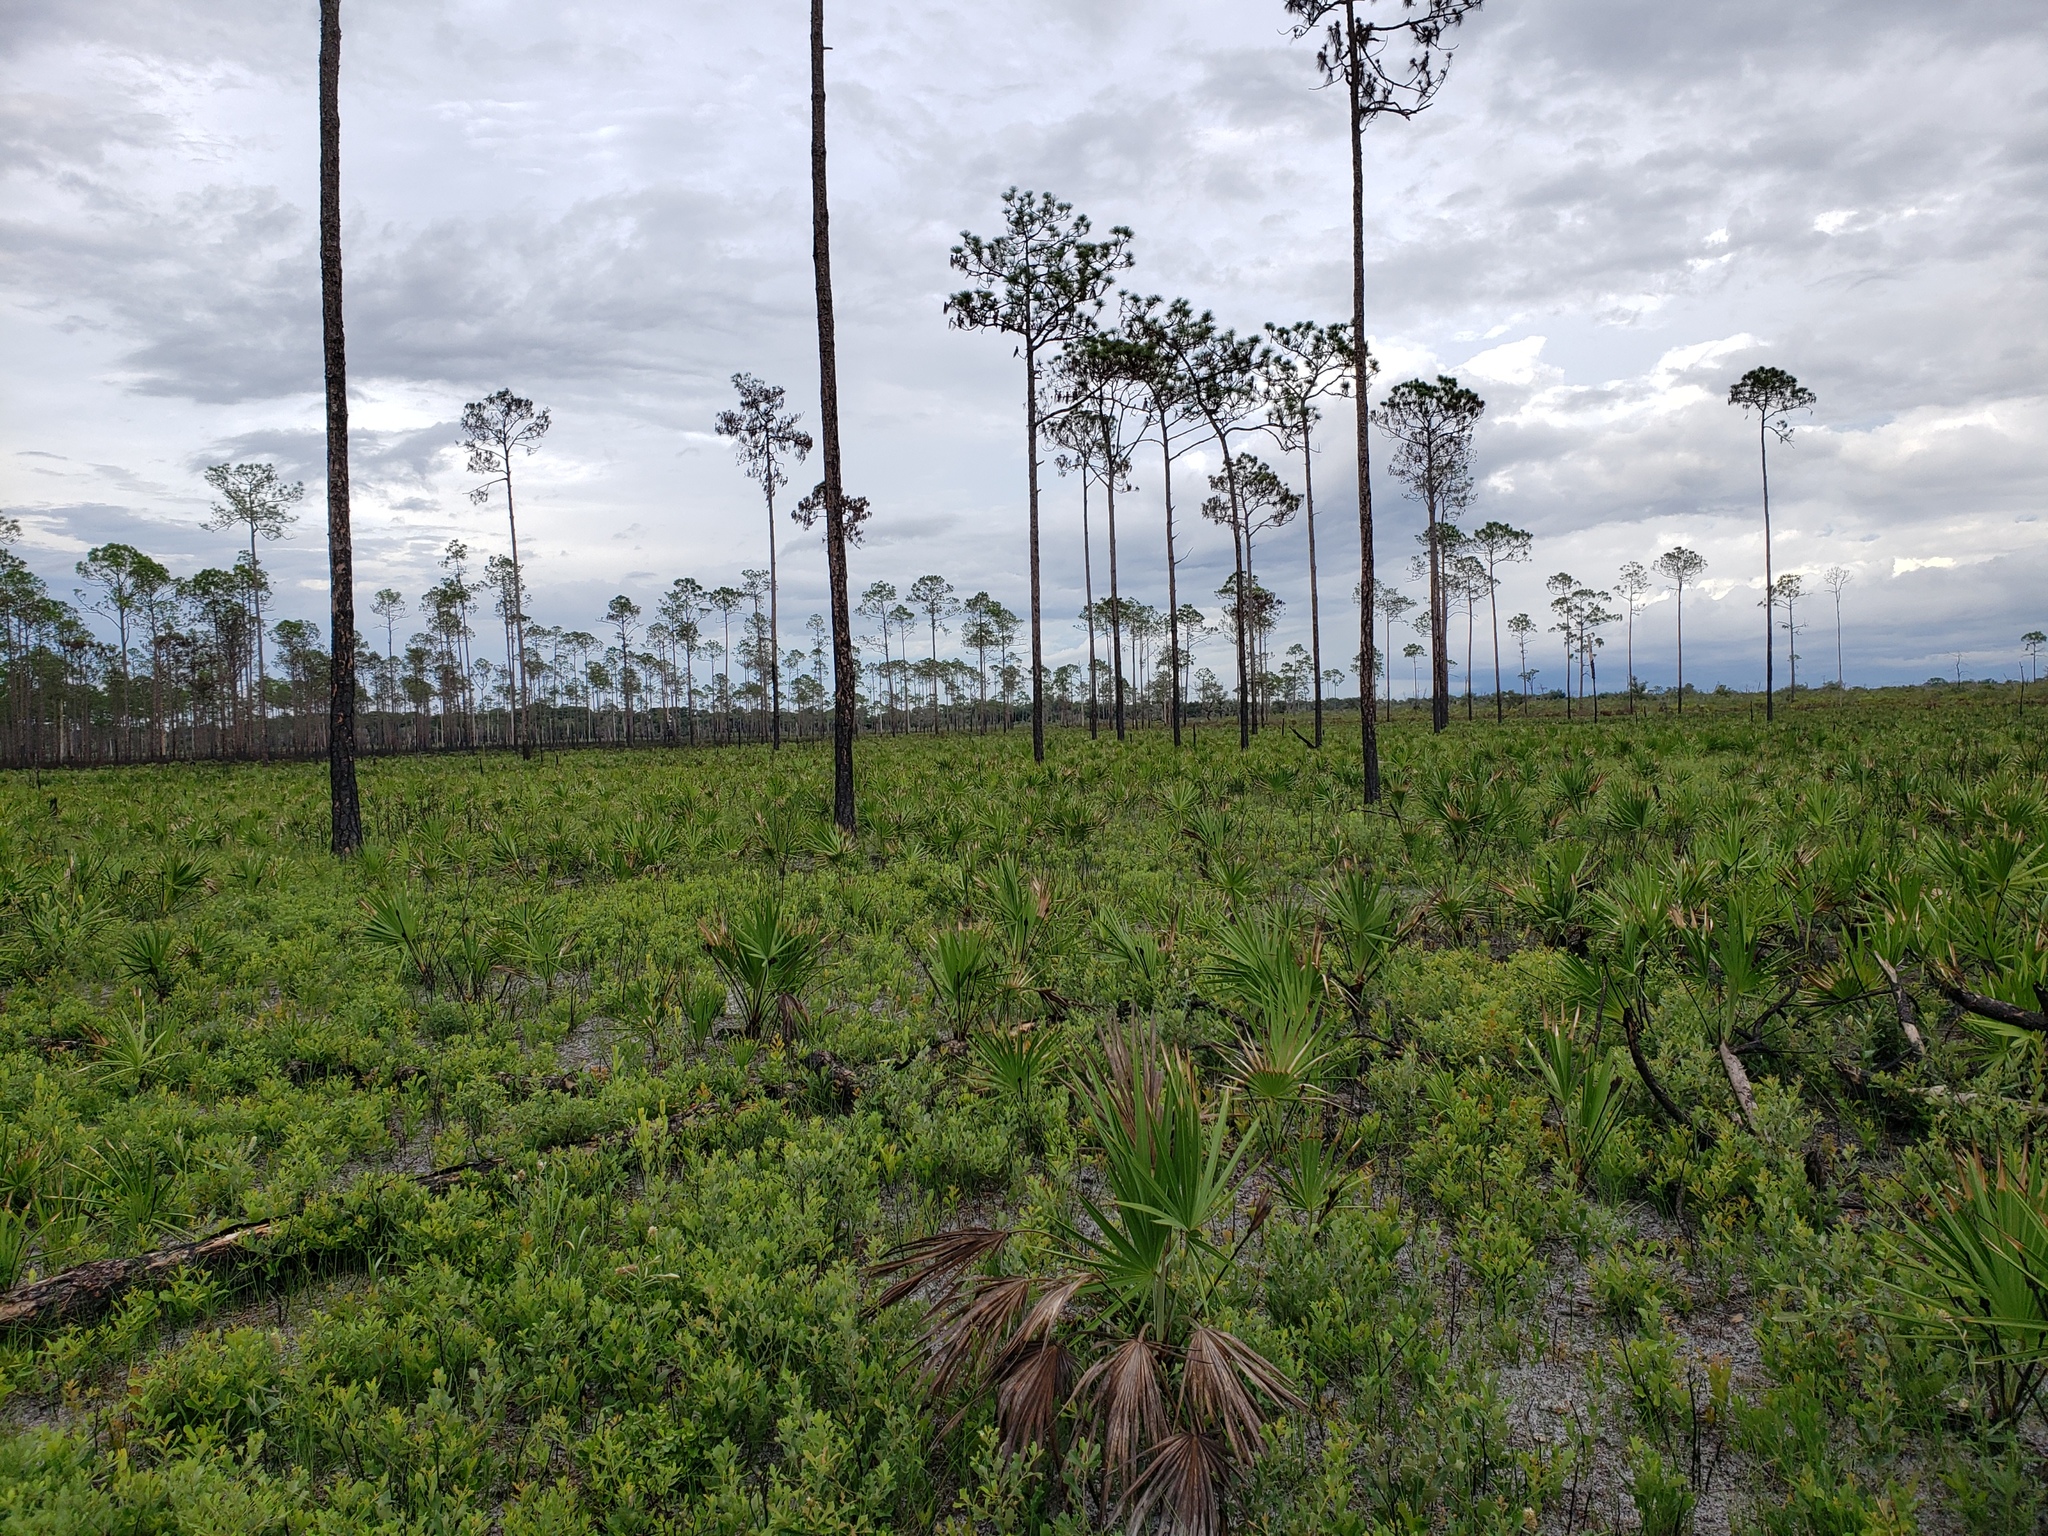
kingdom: Plantae
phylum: Tracheophyta
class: Liliopsida
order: Arecales
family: Arecaceae
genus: Serenoa
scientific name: Serenoa repens
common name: Saw-palmetto
